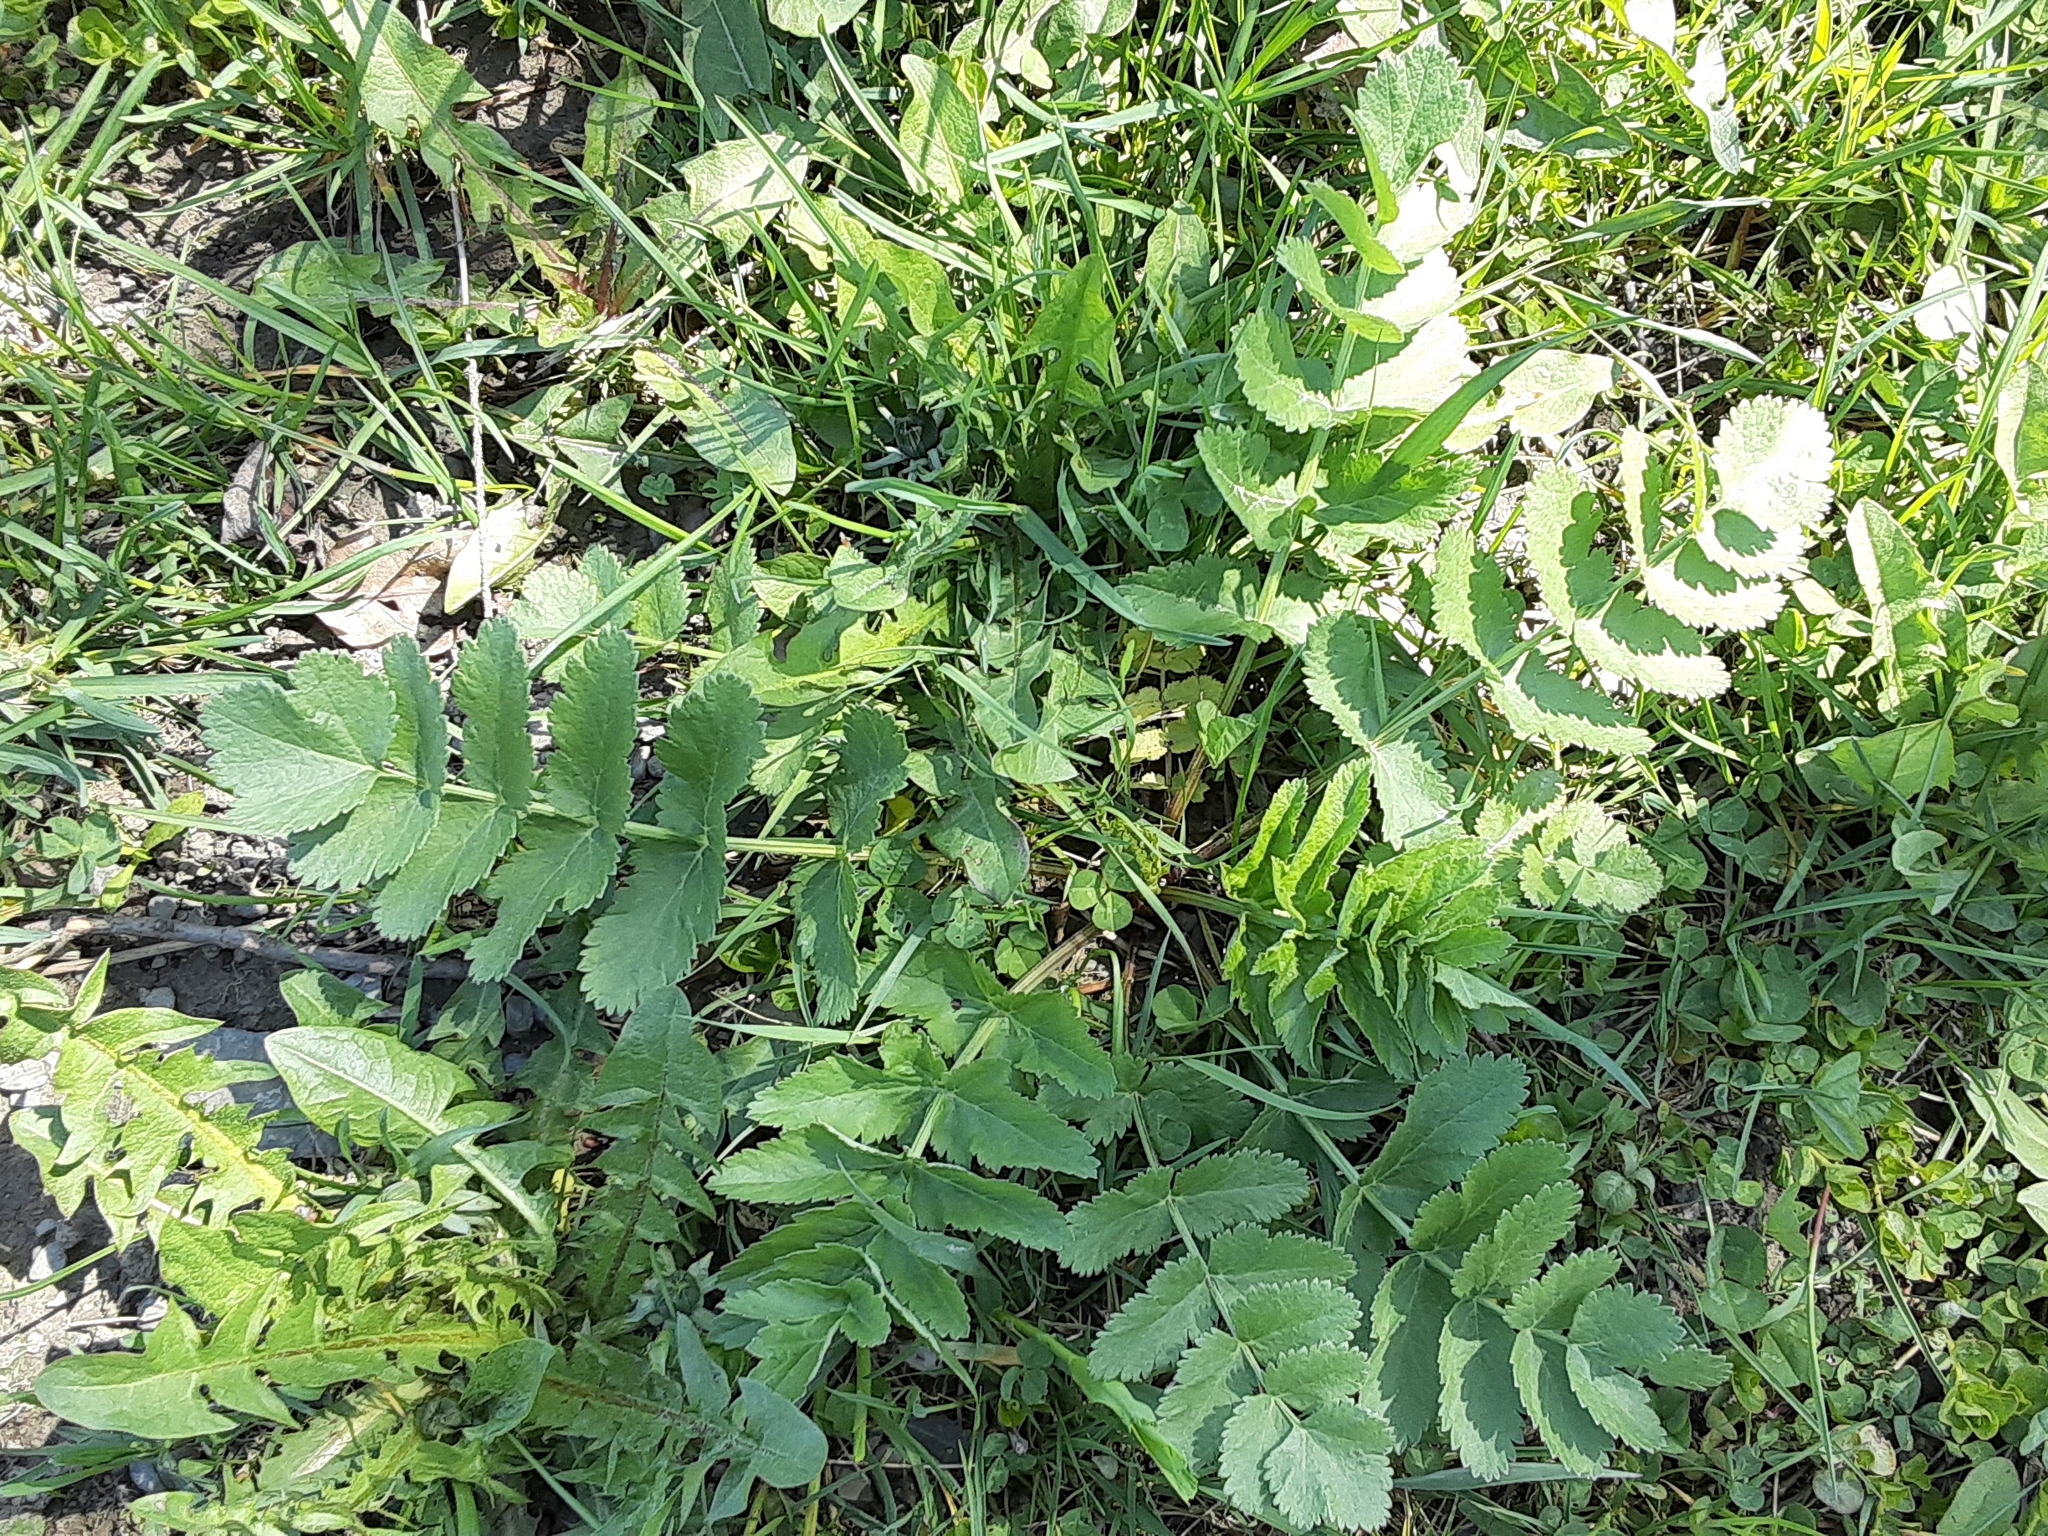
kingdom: Plantae
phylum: Tracheophyta
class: Magnoliopsida
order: Apiales
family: Apiaceae
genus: Pastinaca
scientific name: Pastinaca sativa
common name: Wild parsnip
